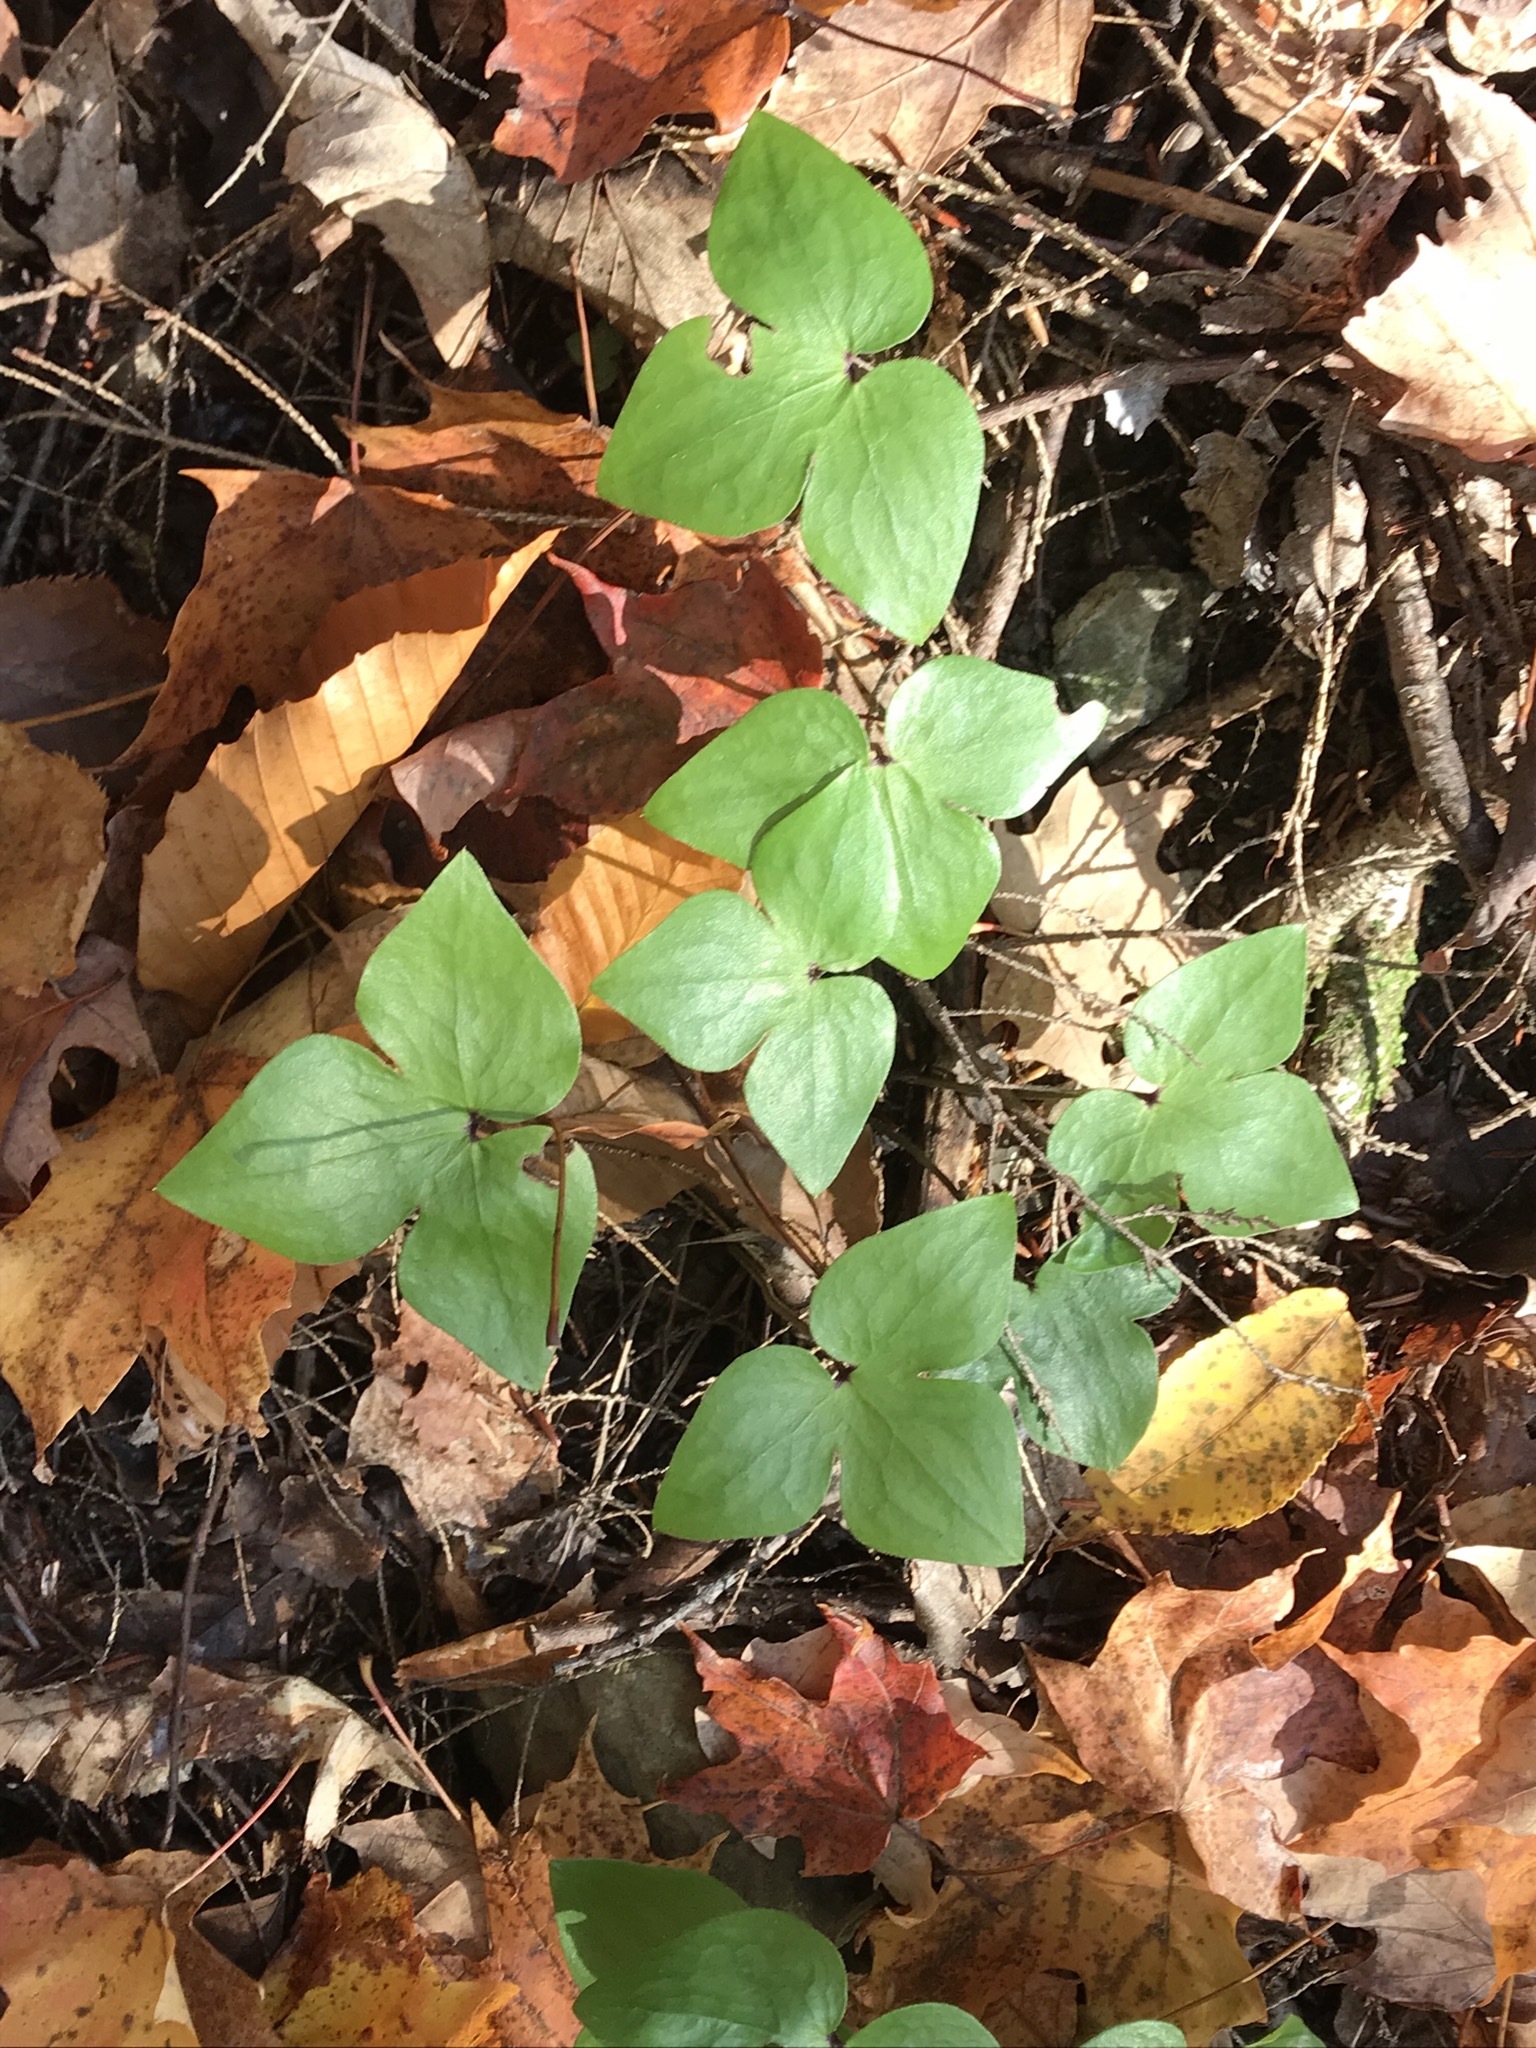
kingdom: Plantae
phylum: Tracheophyta
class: Magnoliopsida
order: Ranunculales
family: Ranunculaceae
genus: Hepatica
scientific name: Hepatica acutiloba
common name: Sharp-lobed hepatica
